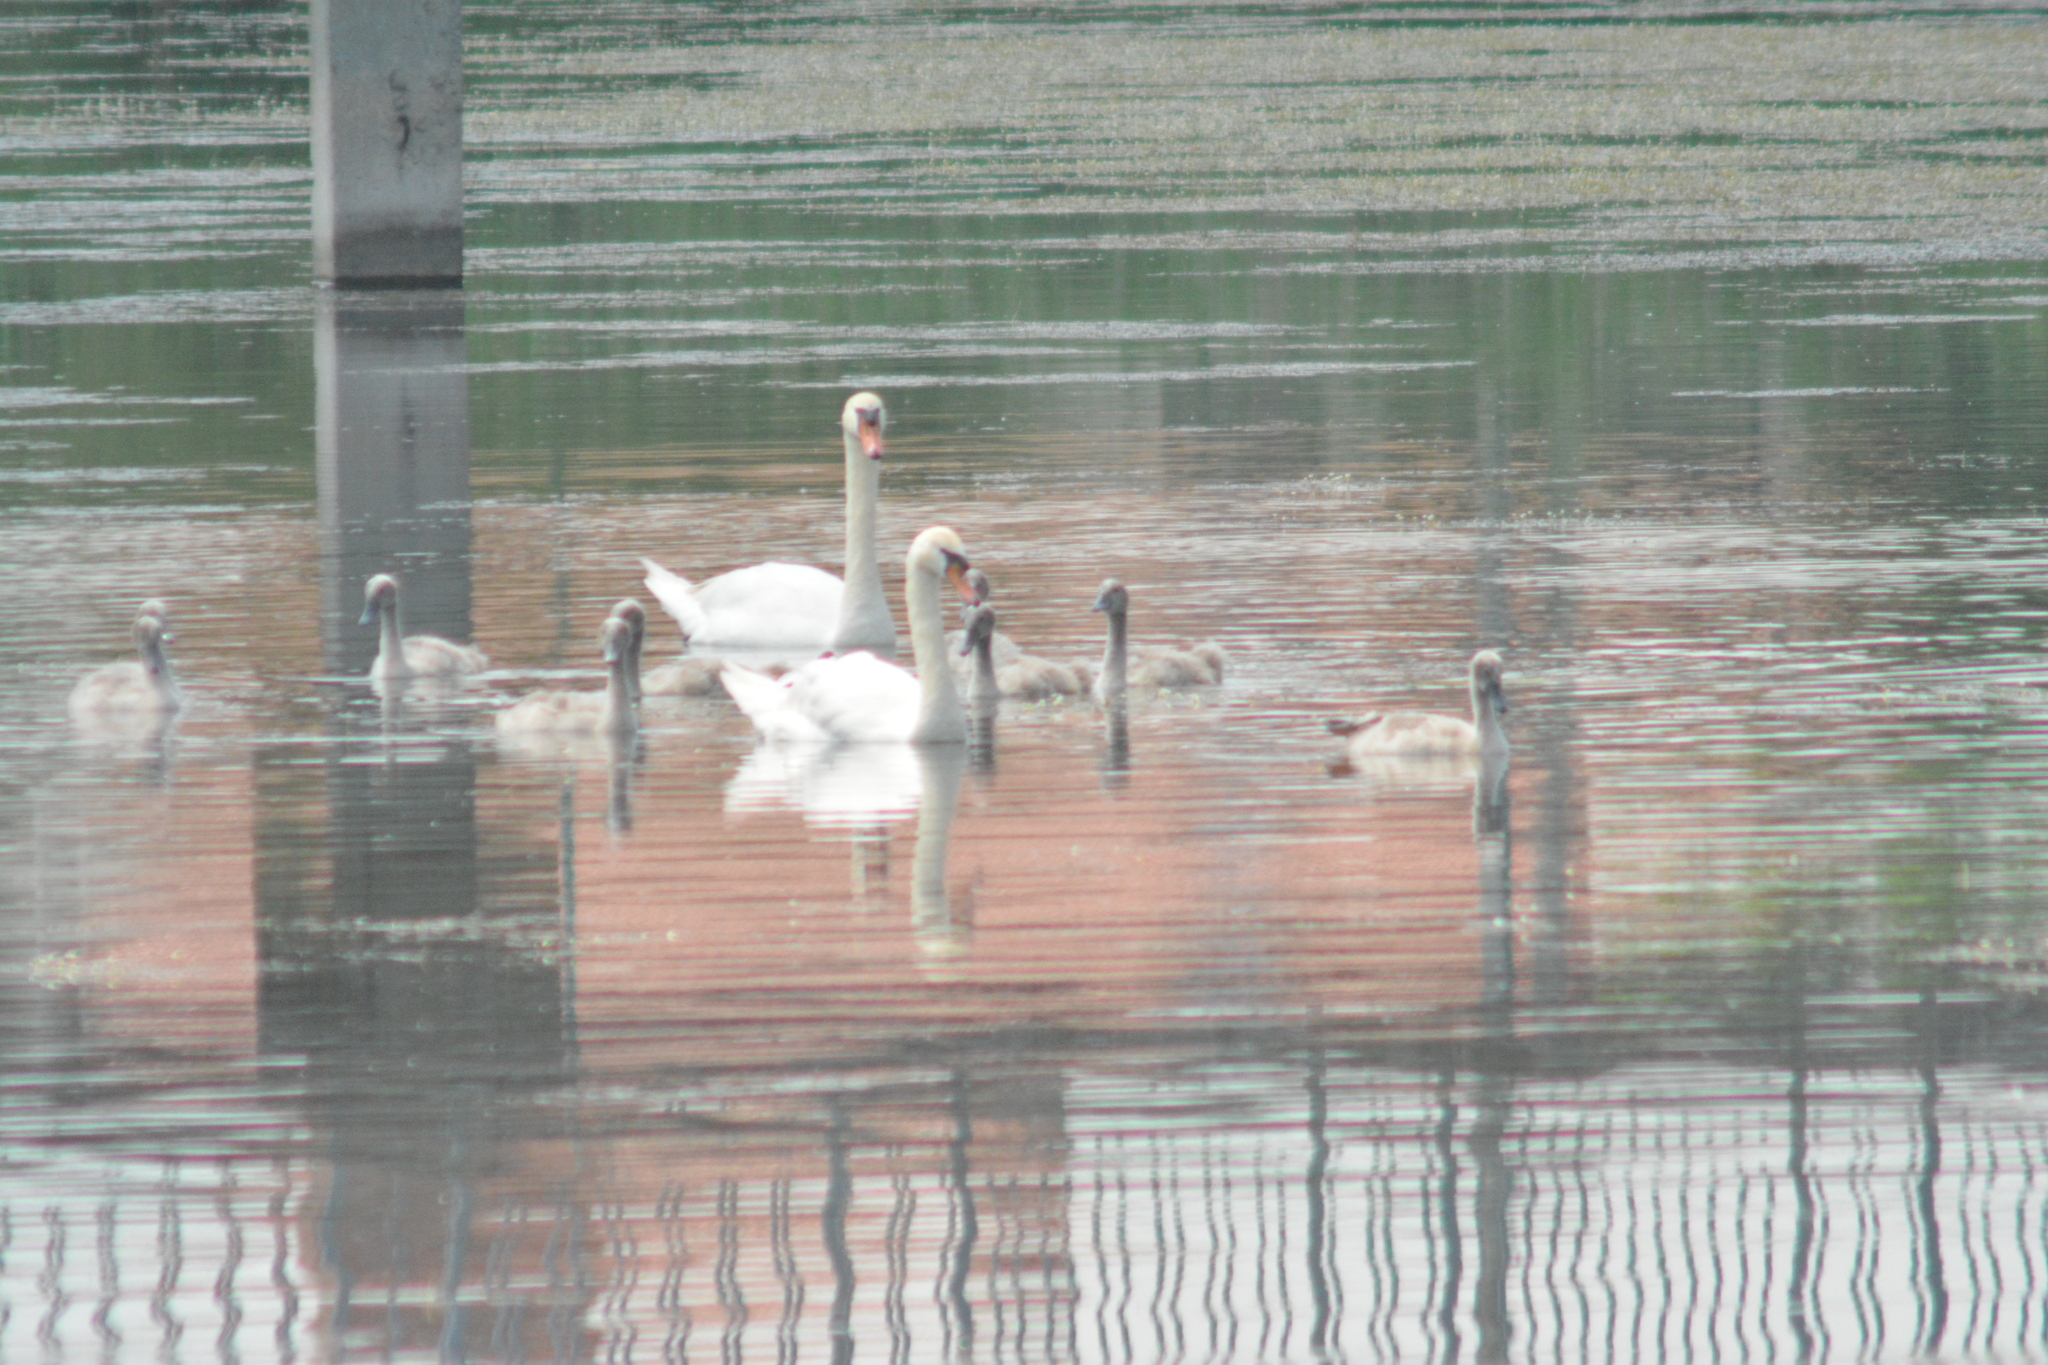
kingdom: Animalia
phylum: Chordata
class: Aves
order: Anseriformes
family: Anatidae
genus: Cygnus
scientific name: Cygnus olor
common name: Mute swan
